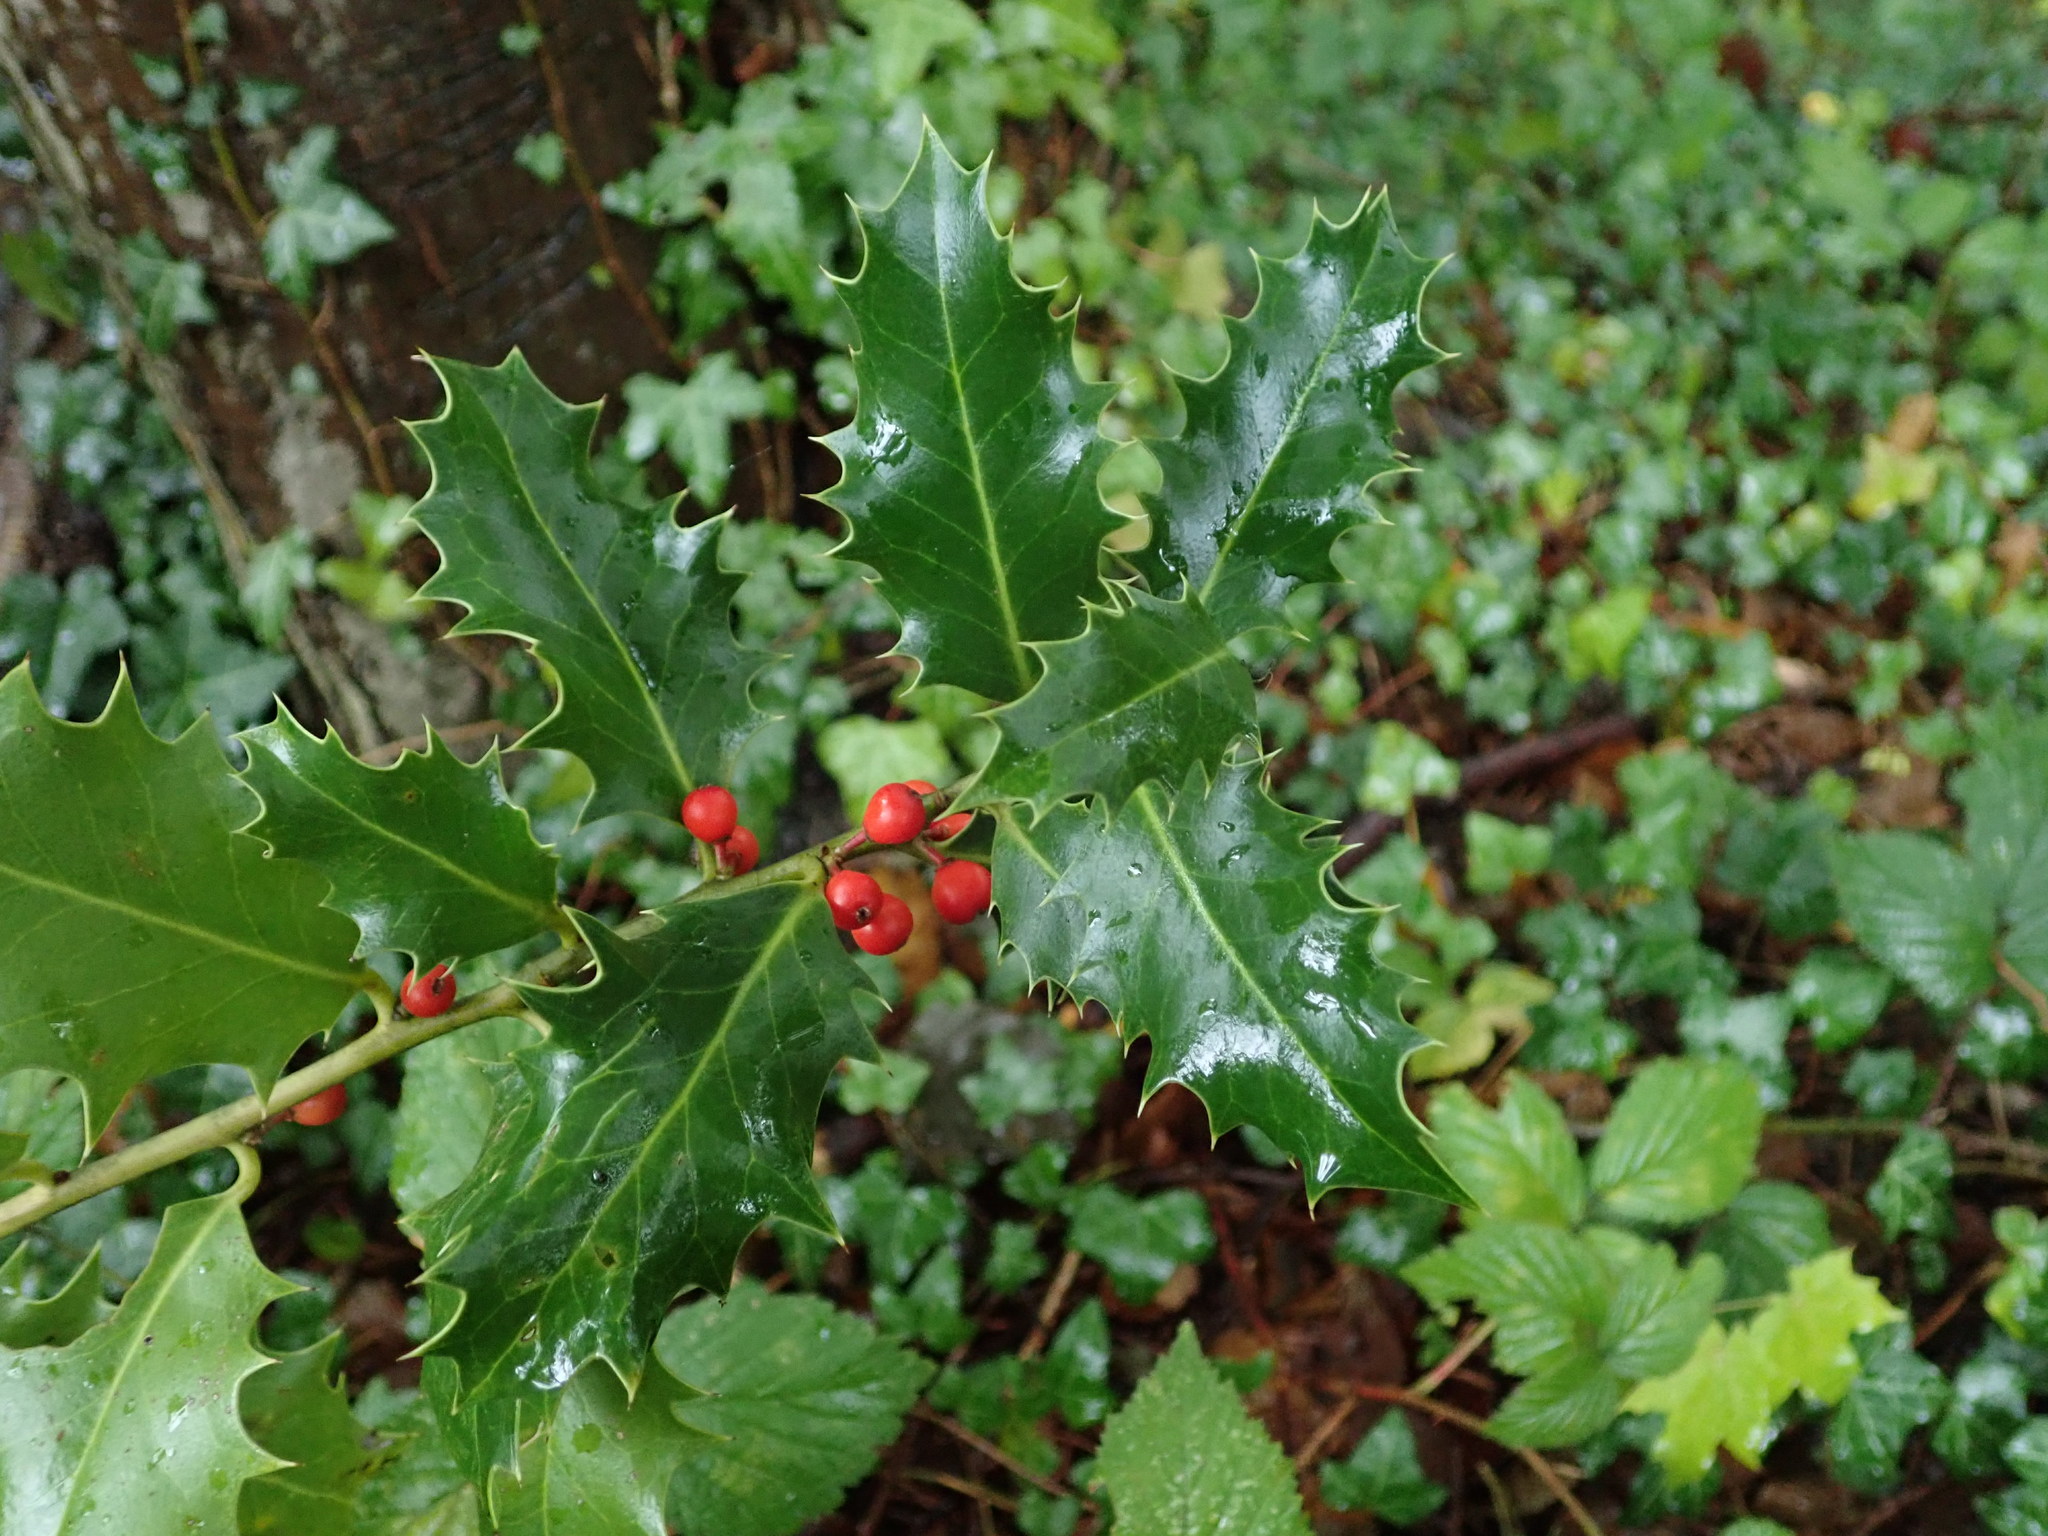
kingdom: Plantae
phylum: Tracheophyta
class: Magnoliopsida
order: Aquifoliales
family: Aquifoliaceae
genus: Ilex
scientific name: Ilex aquifolium
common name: English holly
